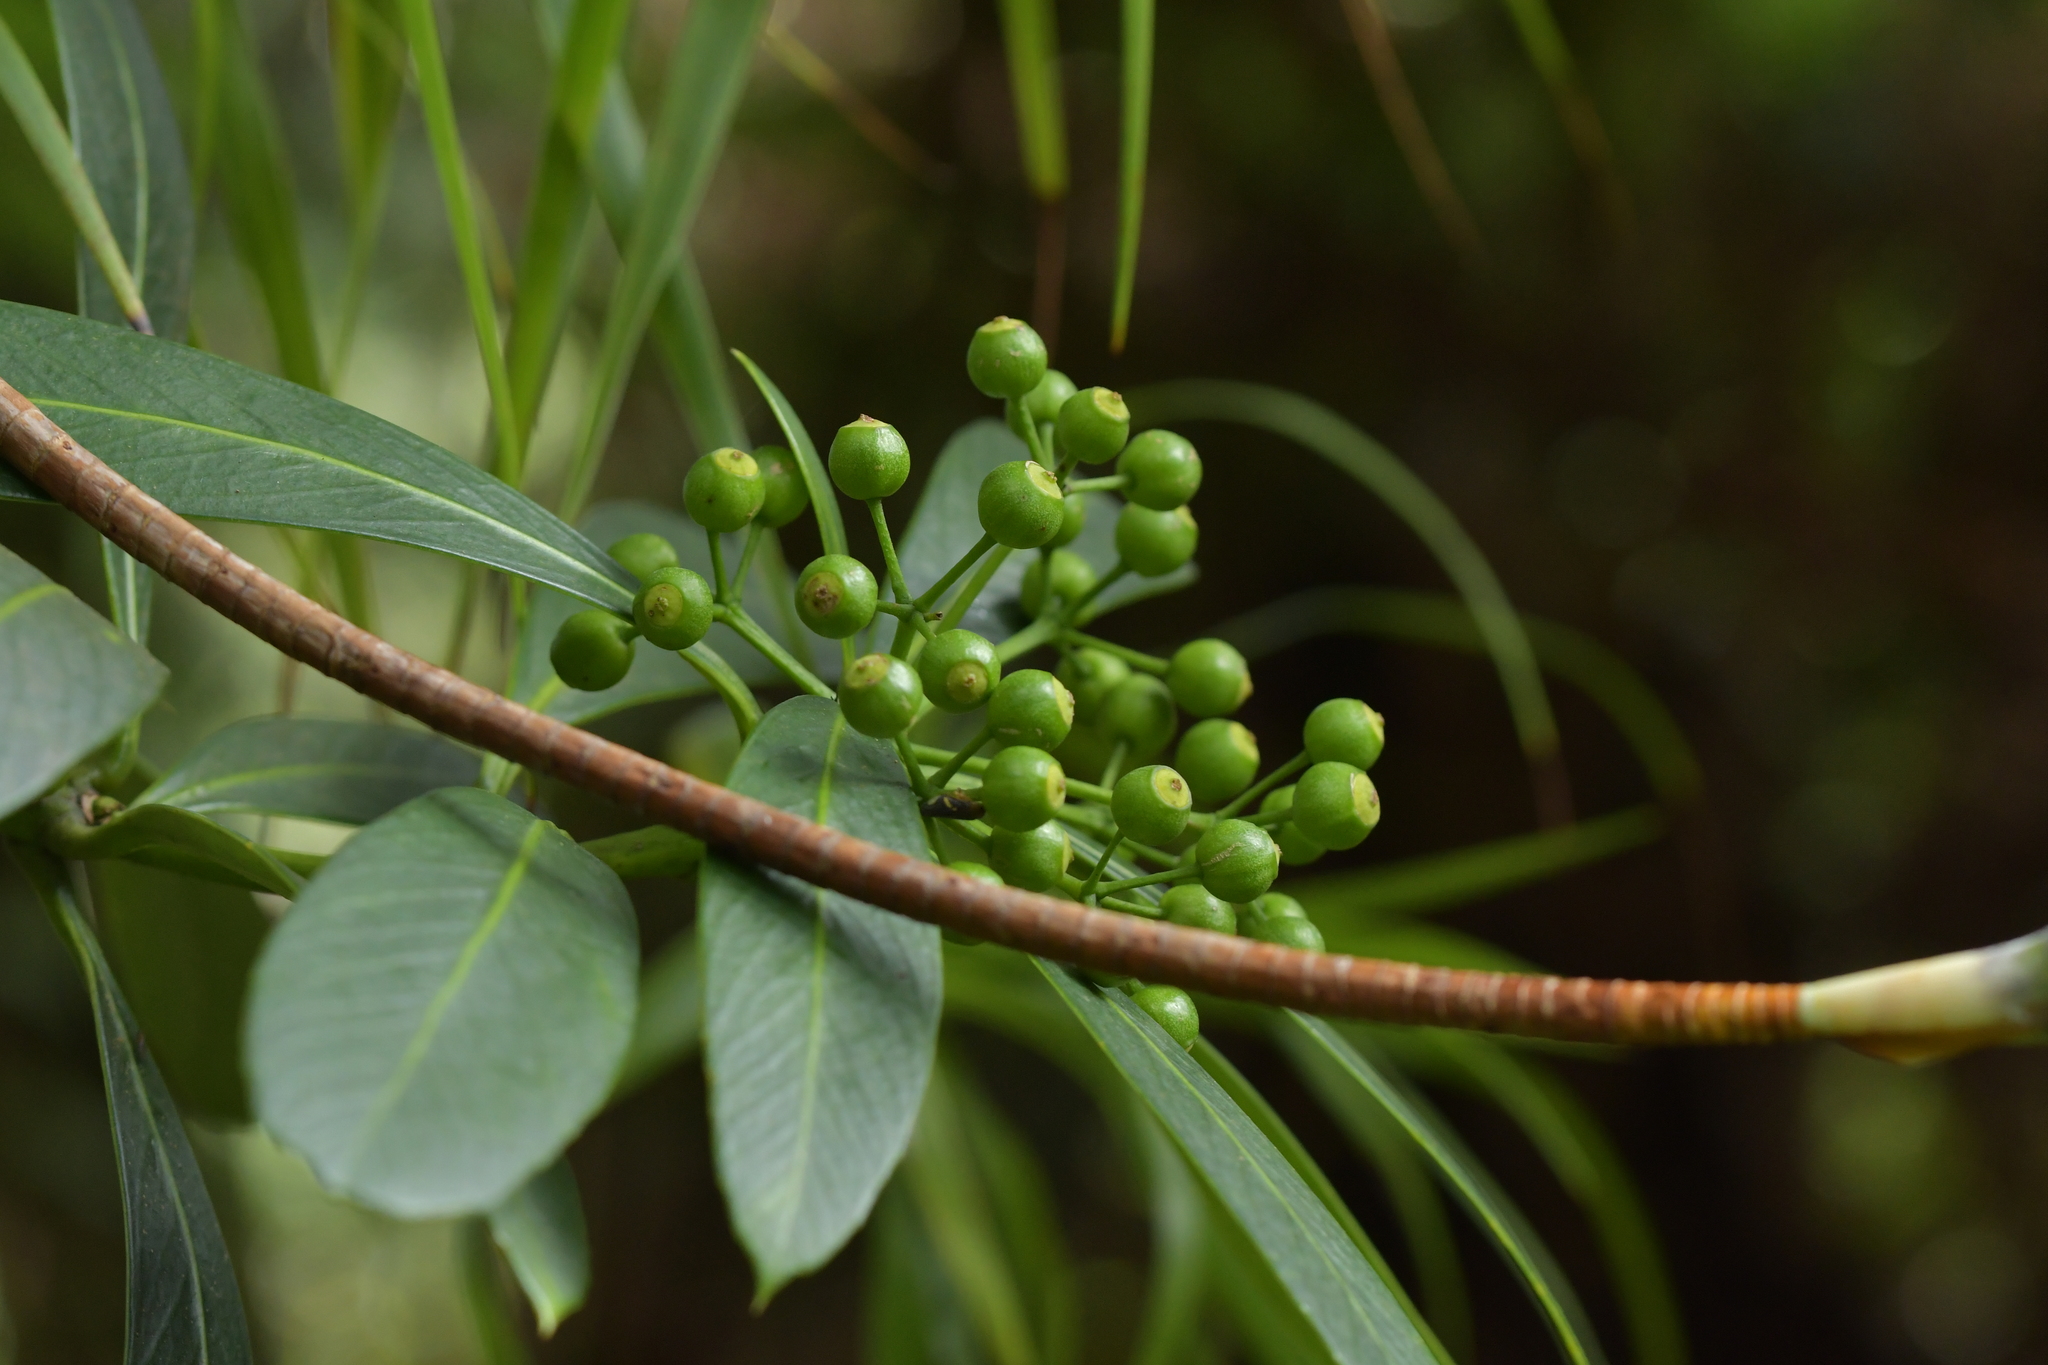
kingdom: Plantae
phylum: Tracheophyta
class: Magnoliopsida
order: Apiales
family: Araliaceae
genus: Pseudopanax
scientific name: Pseudopanax chathamicus
